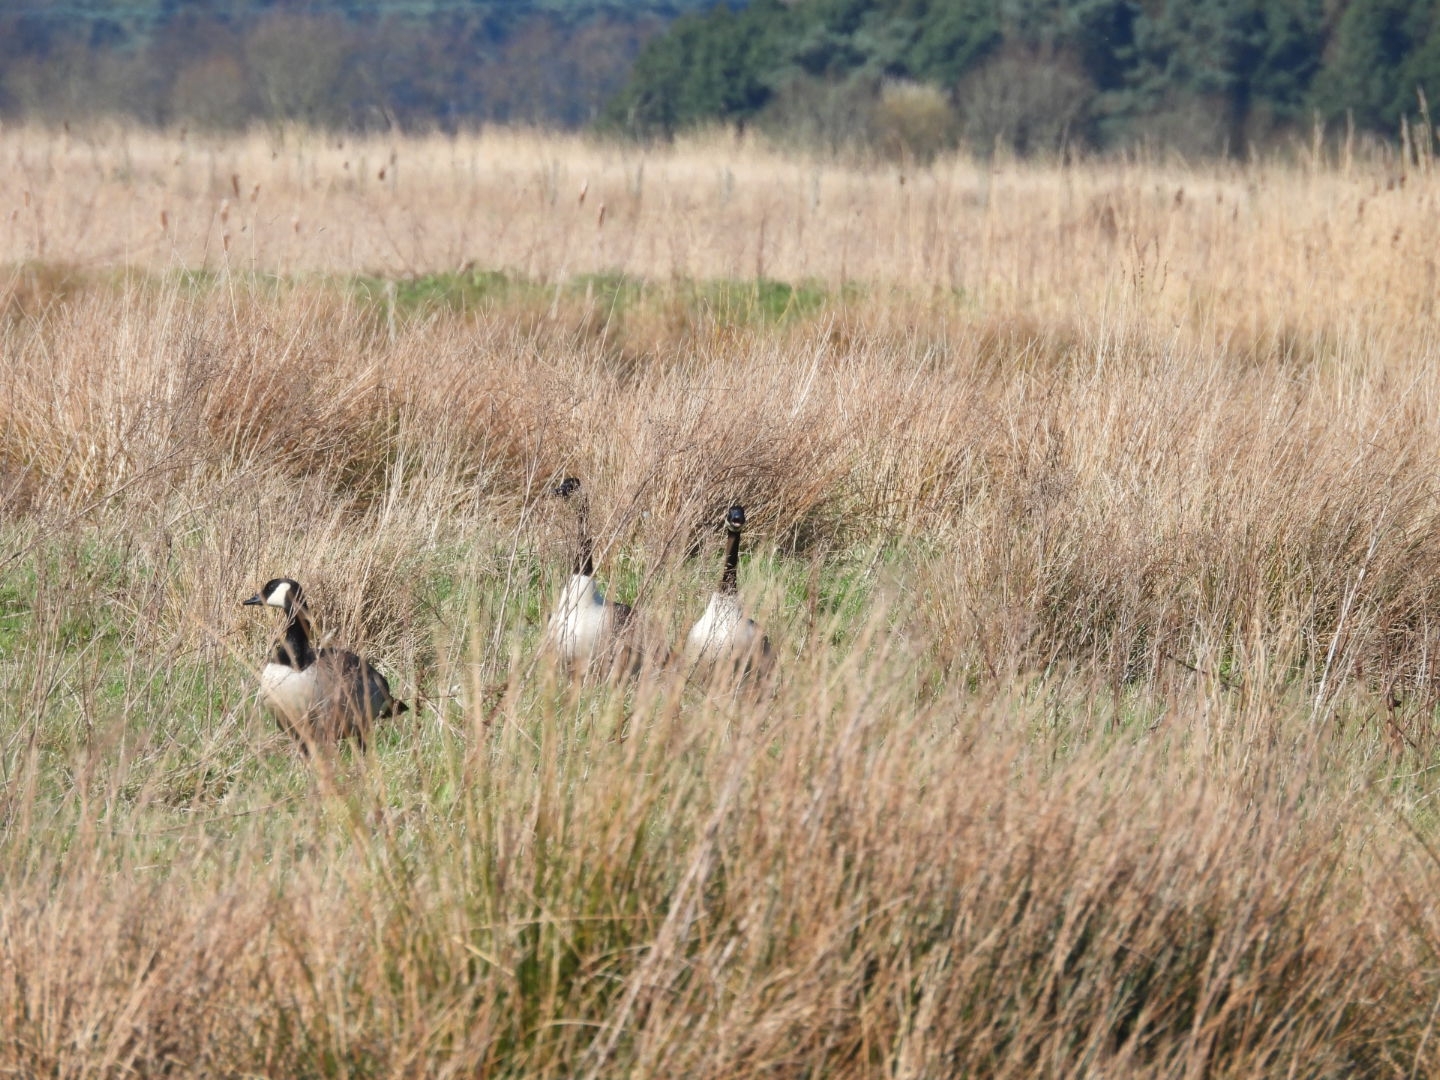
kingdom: Animalia
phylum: Chordata
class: Aves
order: Anseriformes
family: Anatidae
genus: Branta
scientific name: Branta canadensis
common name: Canada goose
